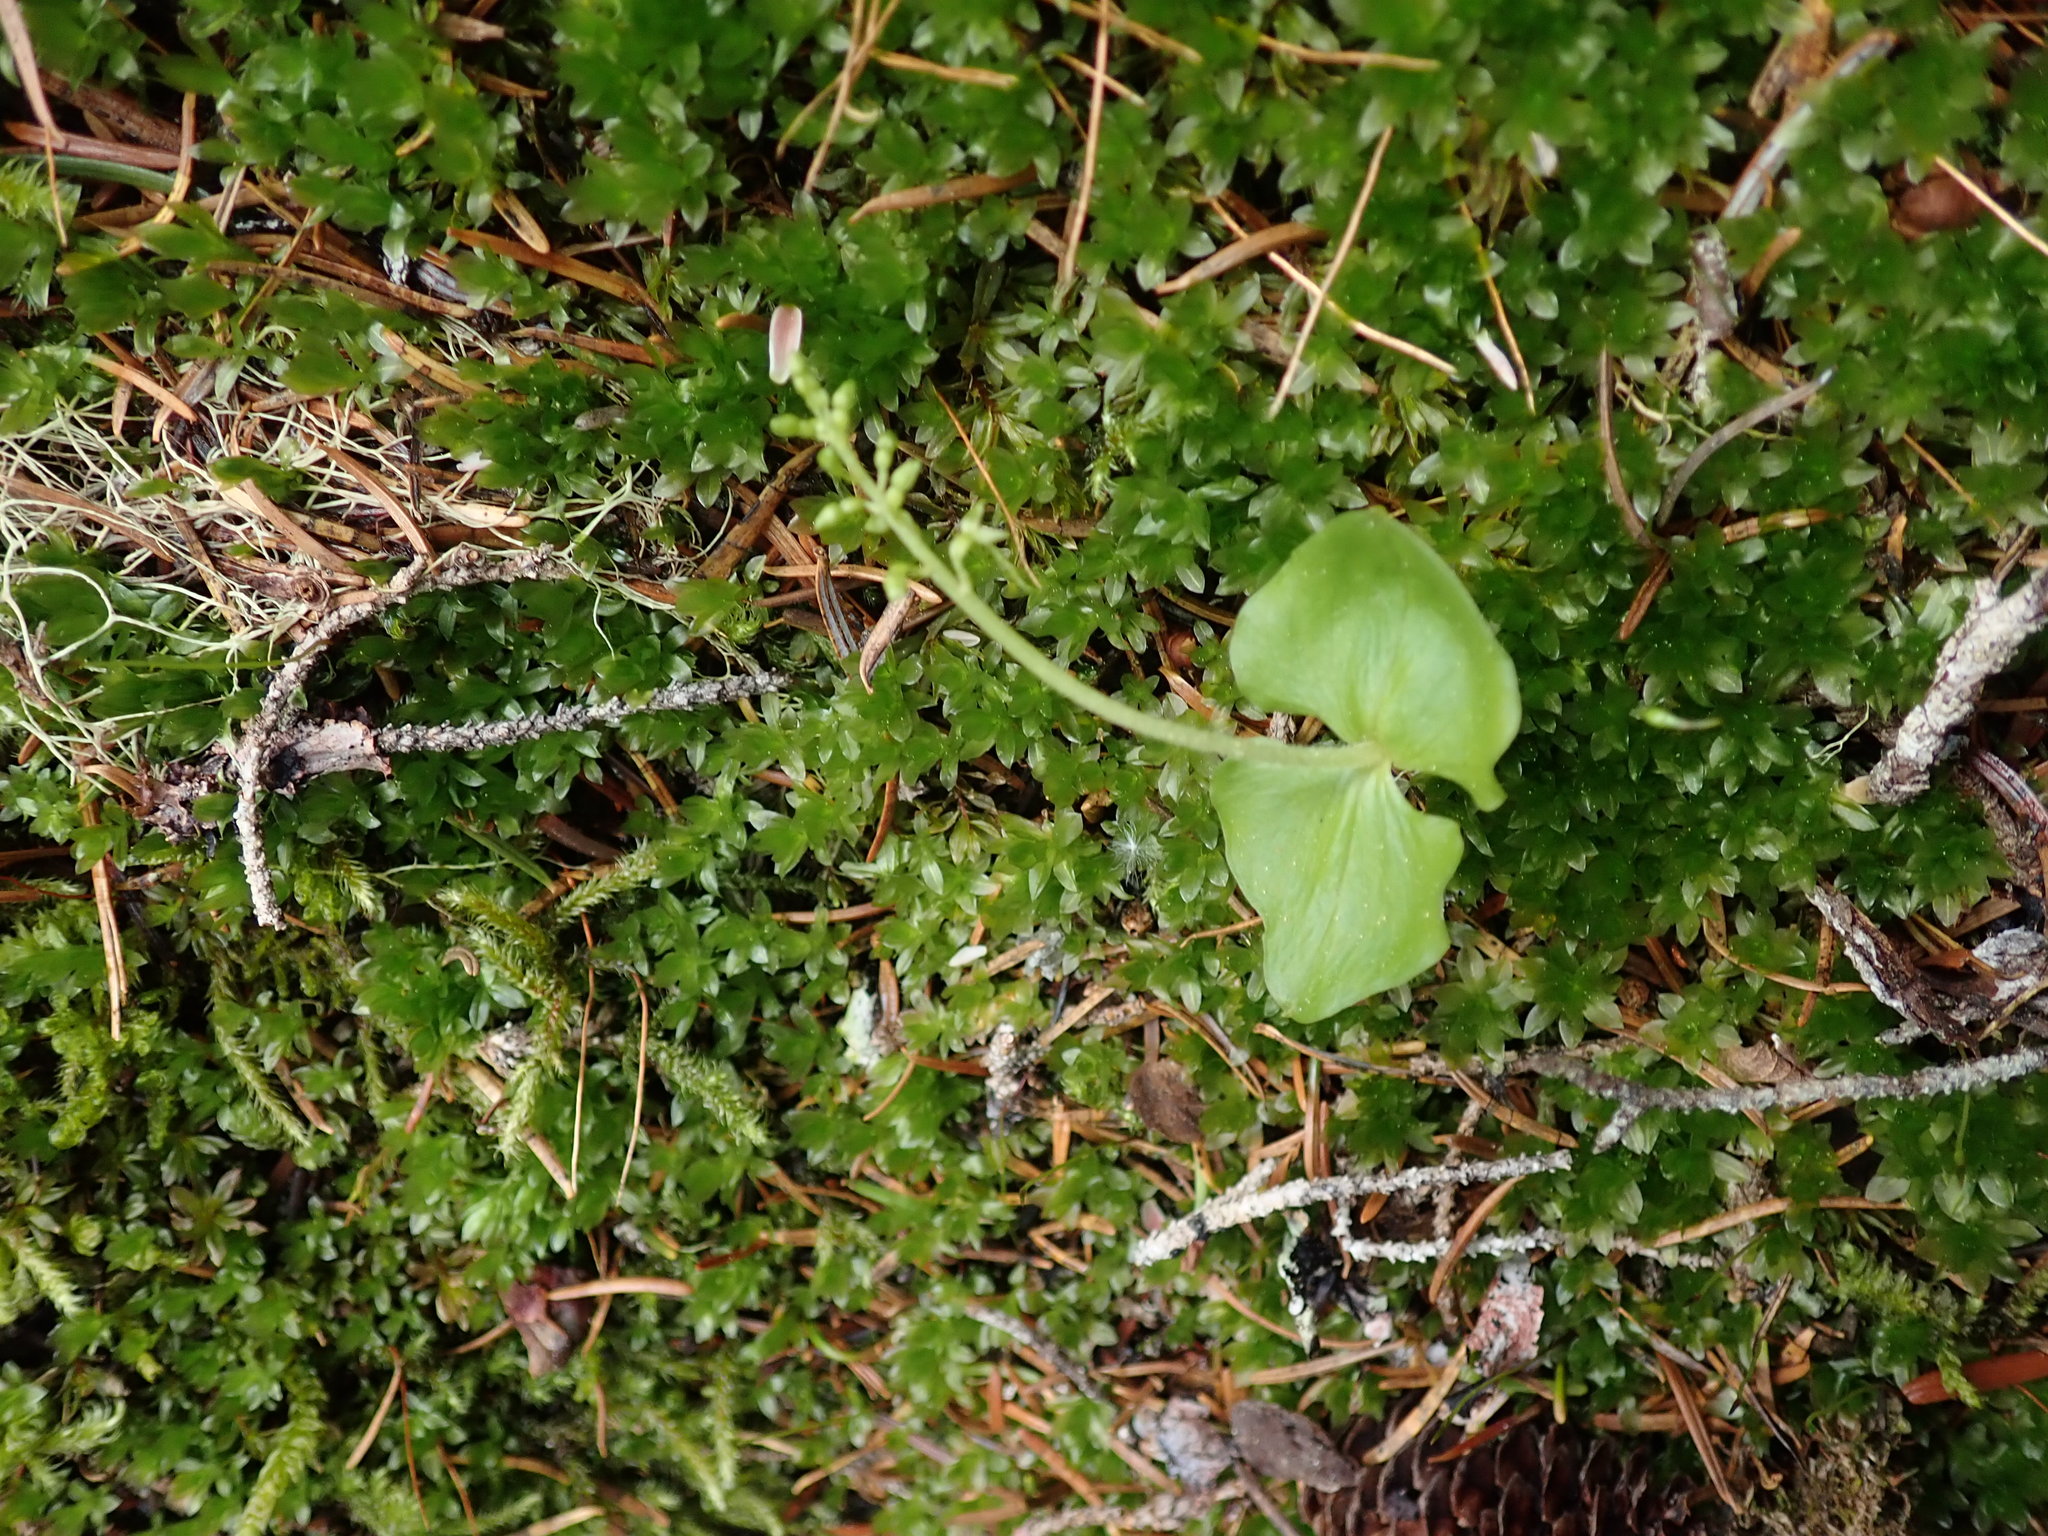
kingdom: Plantae
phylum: Tracheophyta
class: Liliopsida
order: Asparagales
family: Orchidaceae
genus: Neottia
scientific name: Neottia cordata
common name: Lesser twayblade
